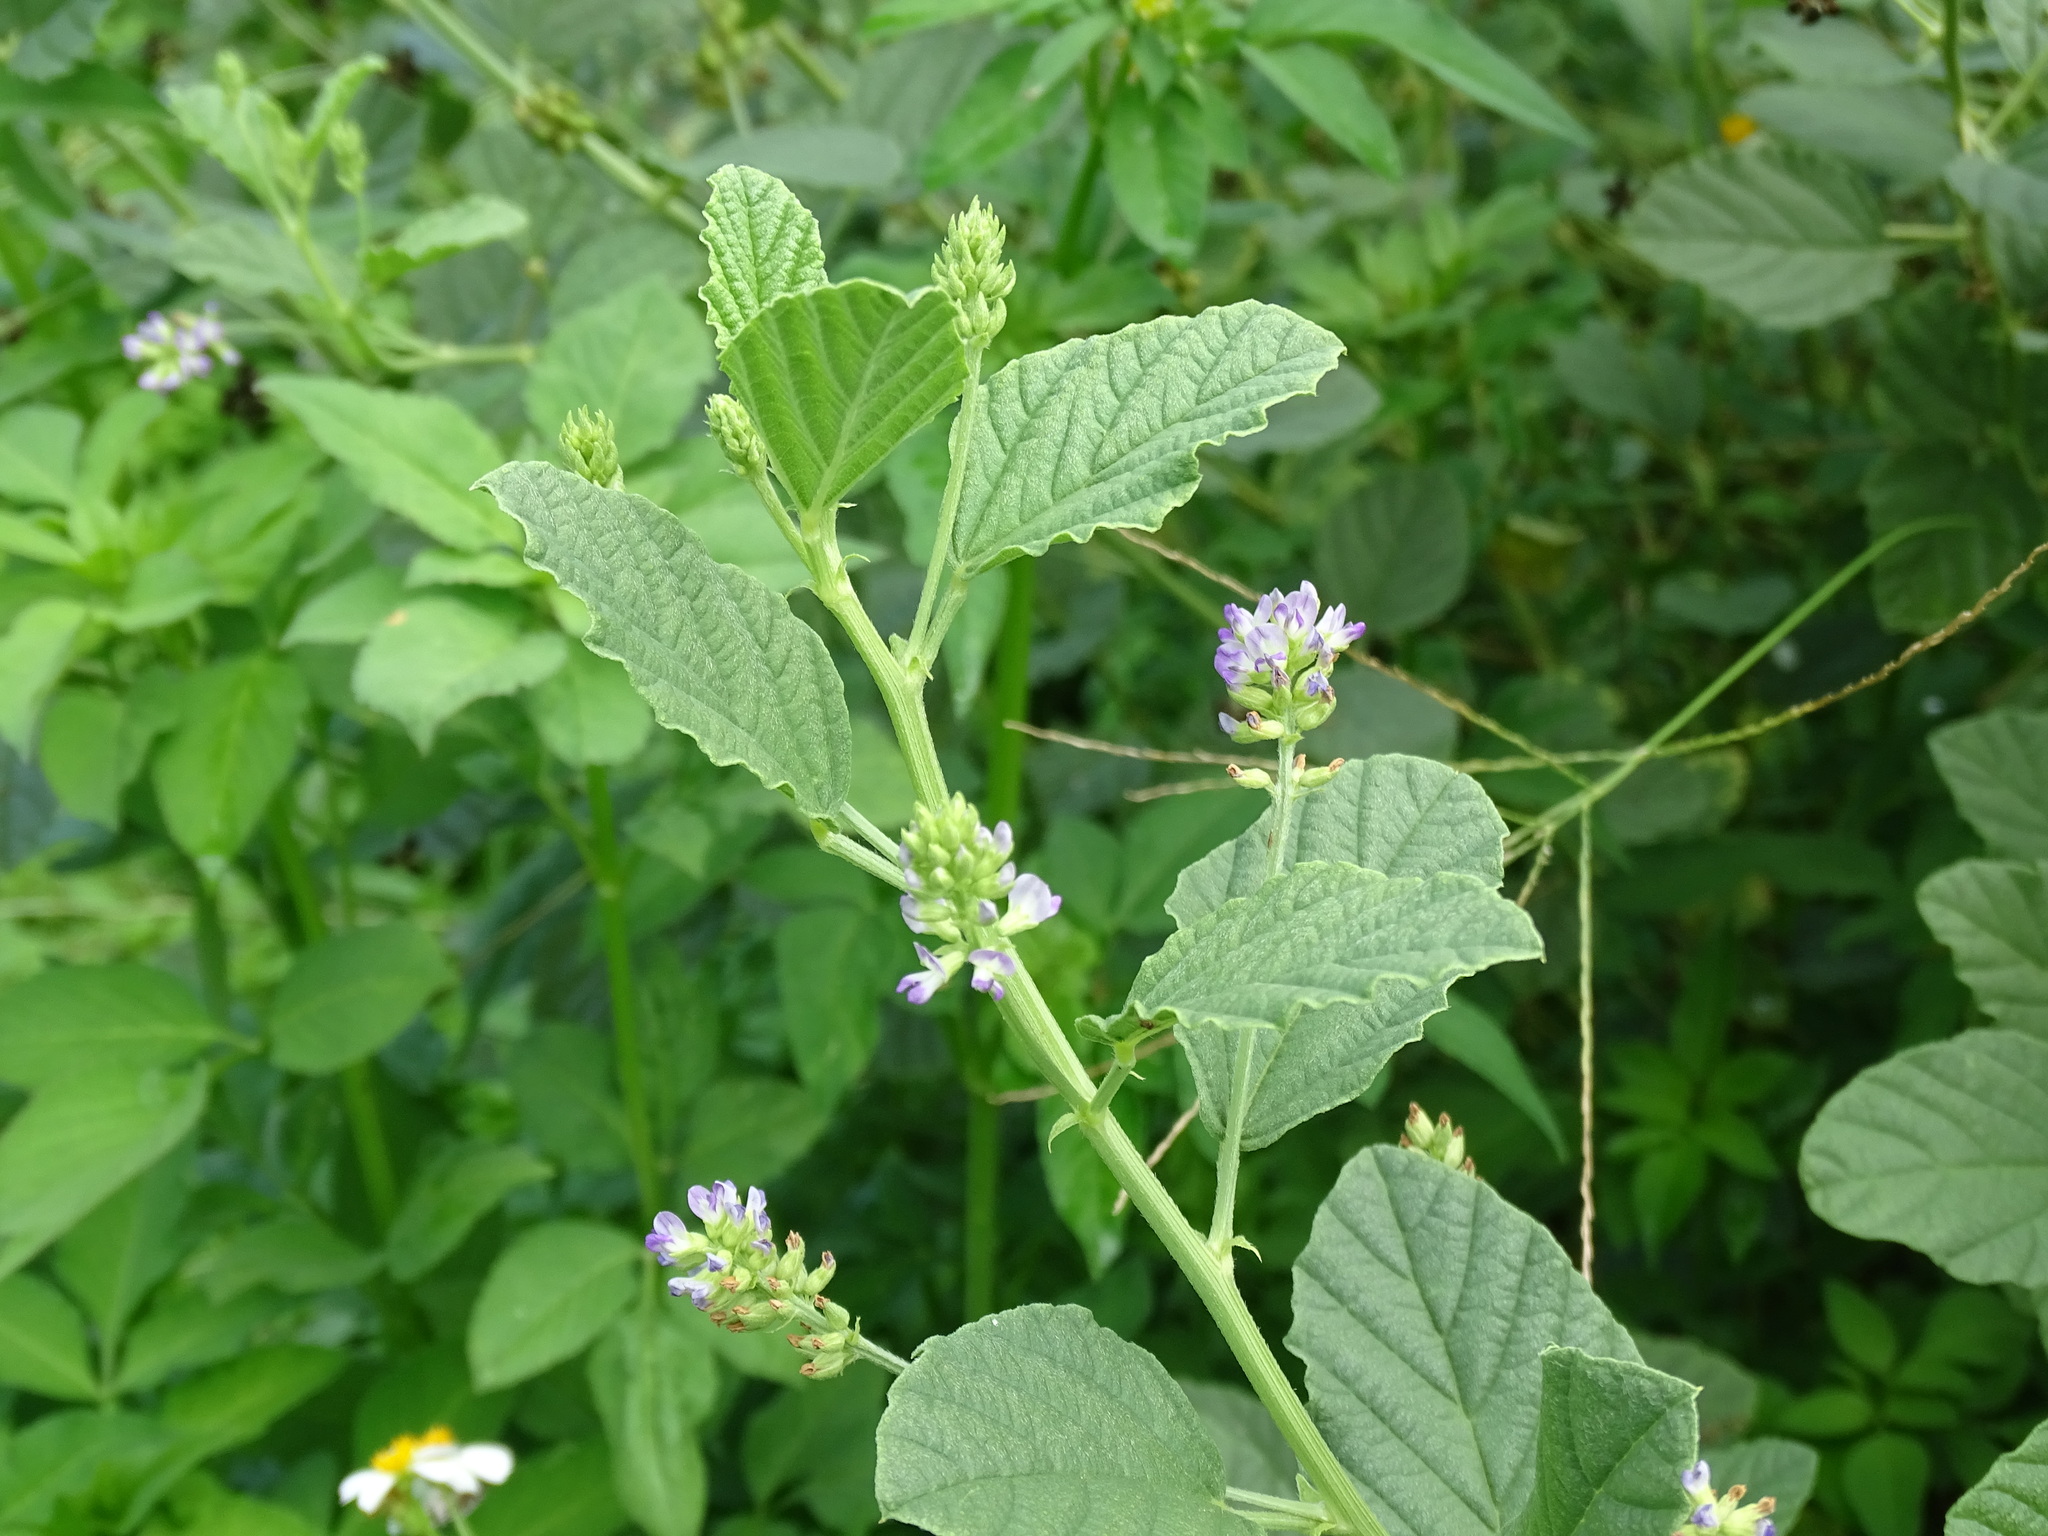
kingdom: Plantae
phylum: Tracheophyta
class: Magnoliopsida
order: Fabales
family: Fabaceae
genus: Cullen
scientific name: Cullen corylifolium
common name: Malaysian scurfpea
